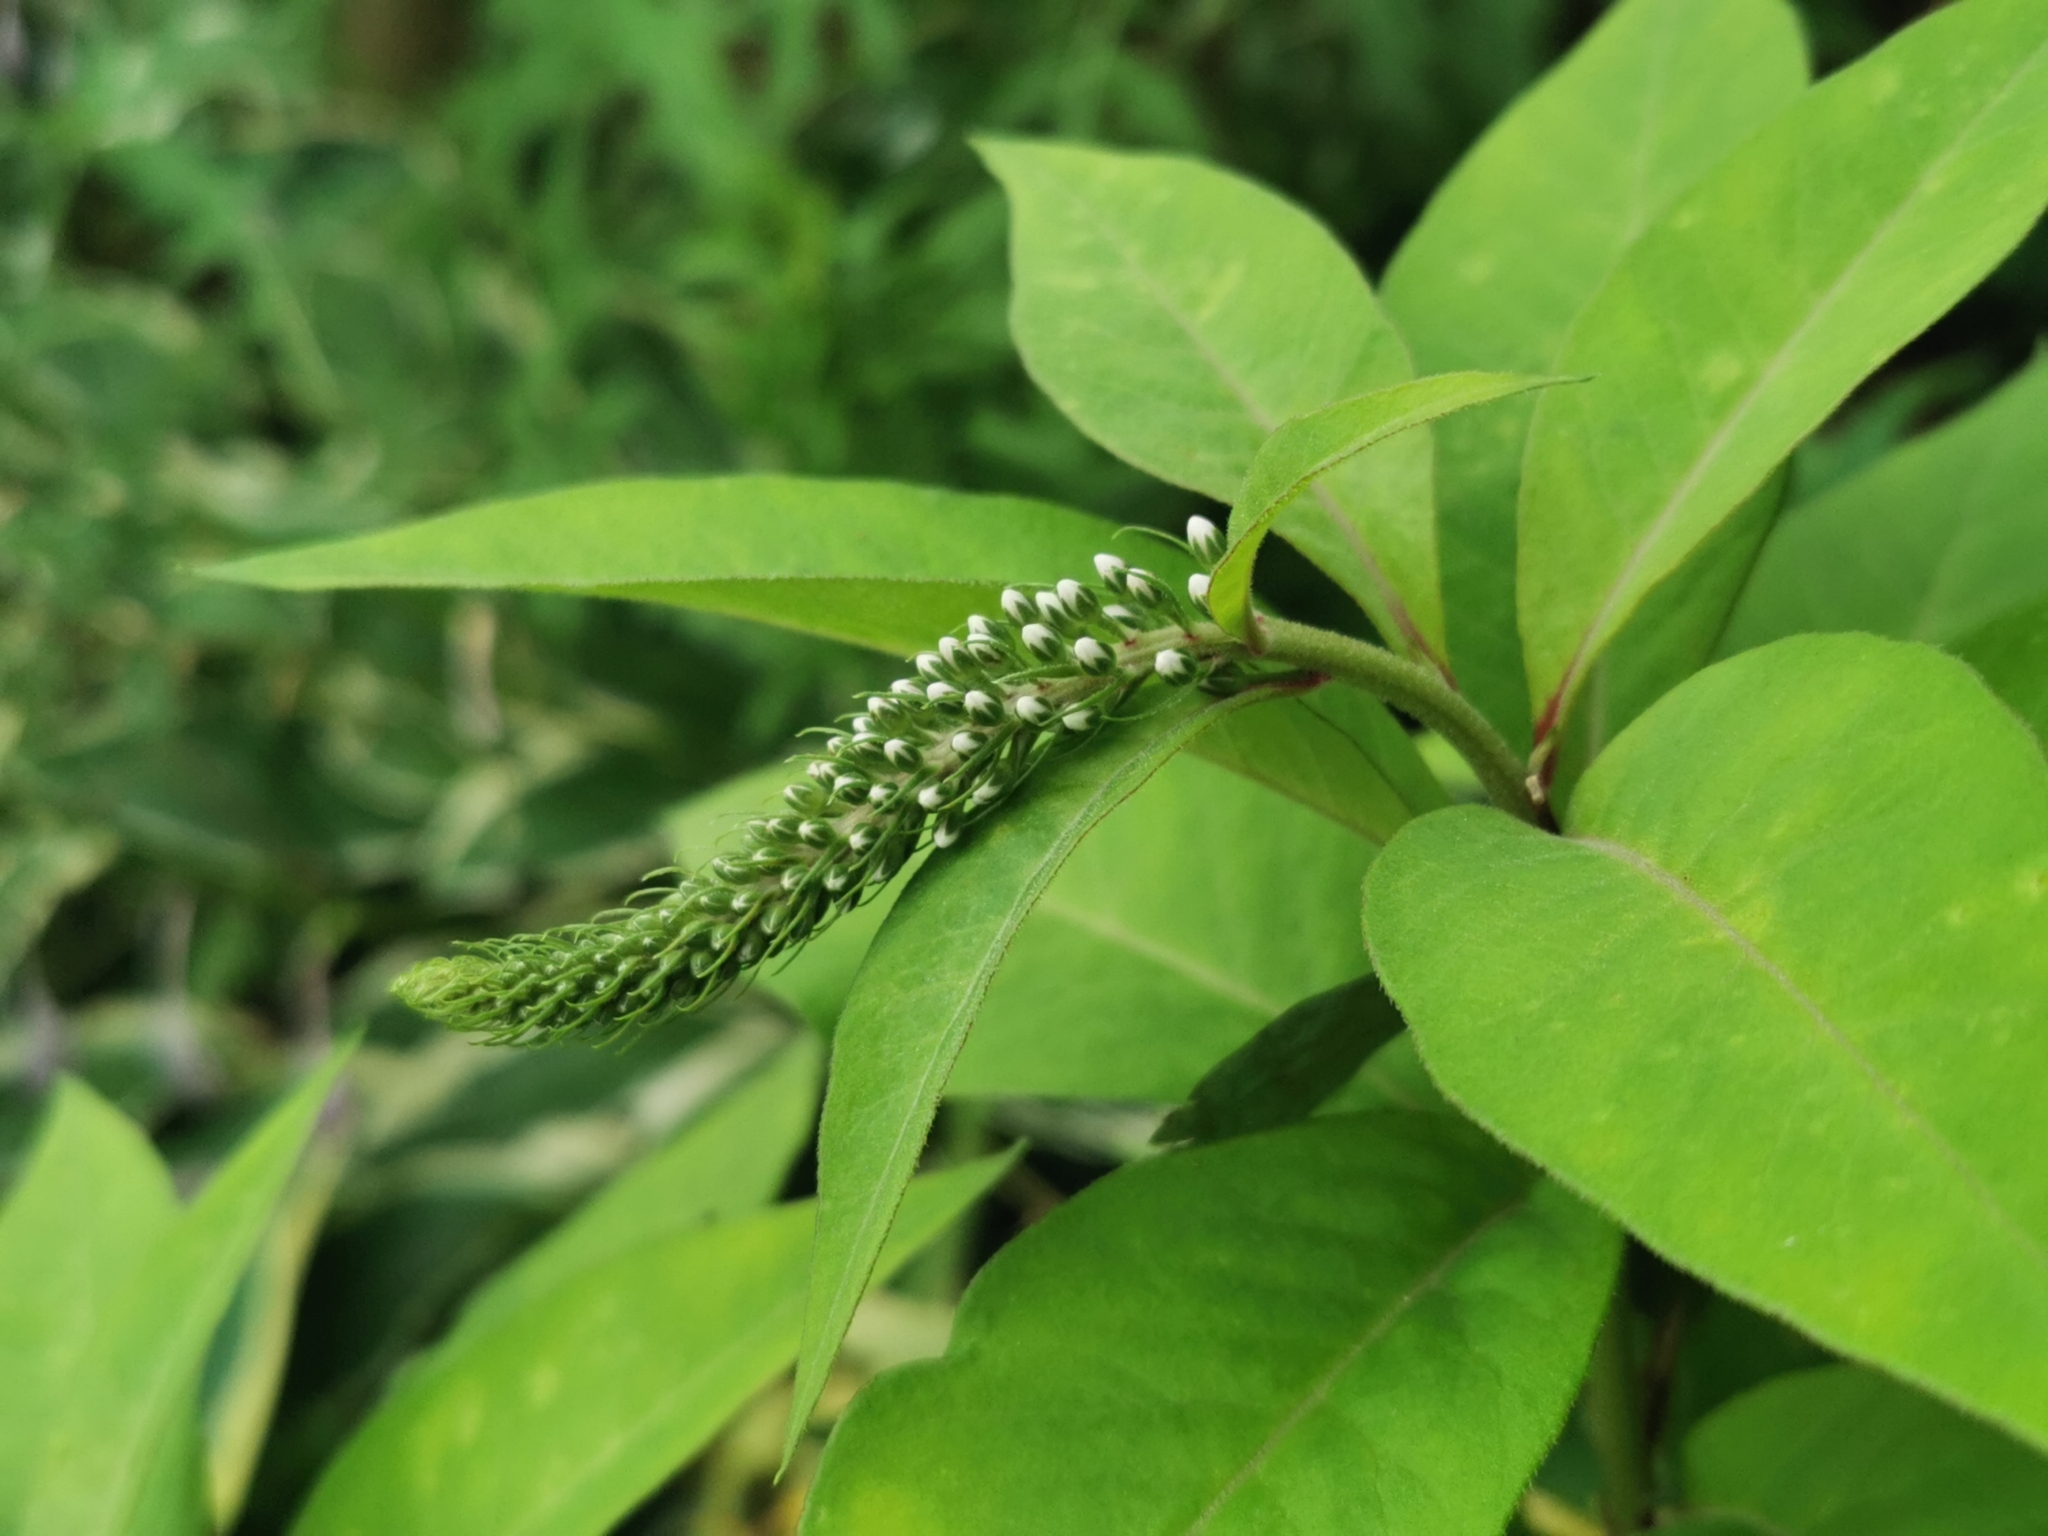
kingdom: Plantae
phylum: Tracheophyta
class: Magnoliopsida
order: Ericales
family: Primulaceae
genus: Lysimachia
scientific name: Lysimachia clethroides
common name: Gooseneck loosestrife
